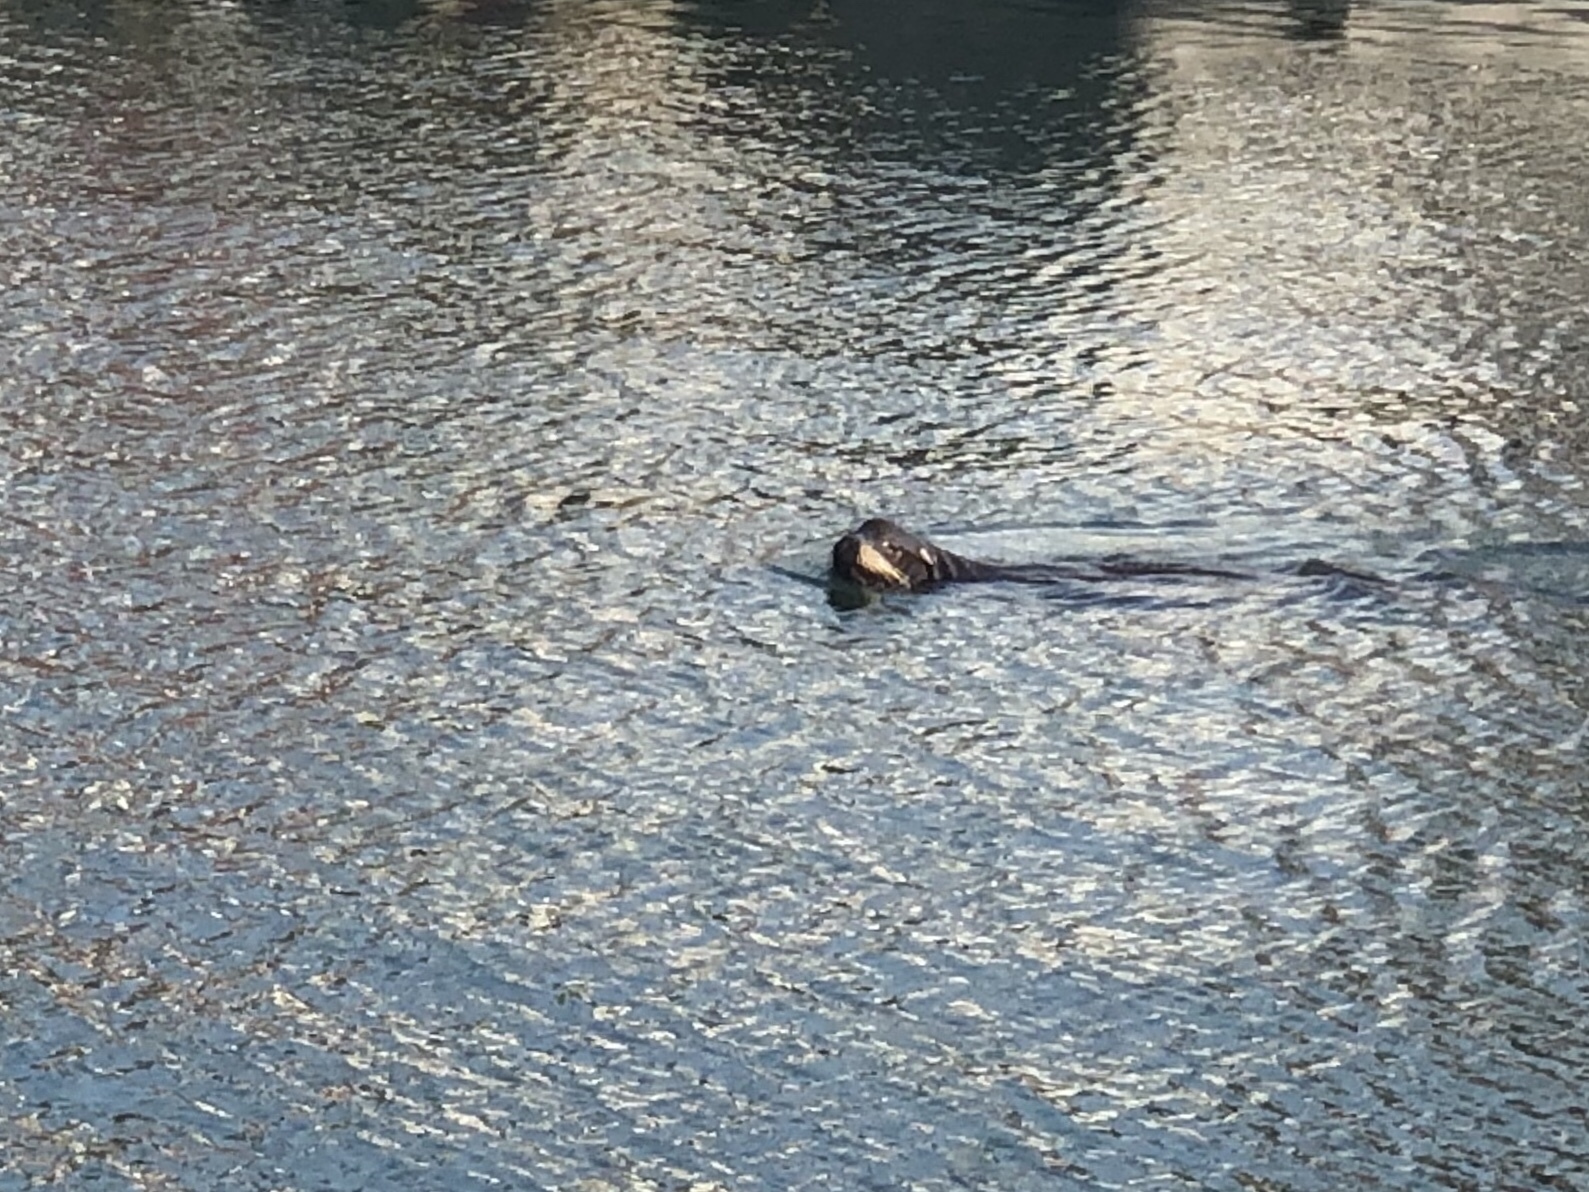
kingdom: Animalia
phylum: Chordata
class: Mammalia
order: Carnivora
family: Otariidae
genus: Zalophus
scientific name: Zalophus californianus
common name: California sea lion
